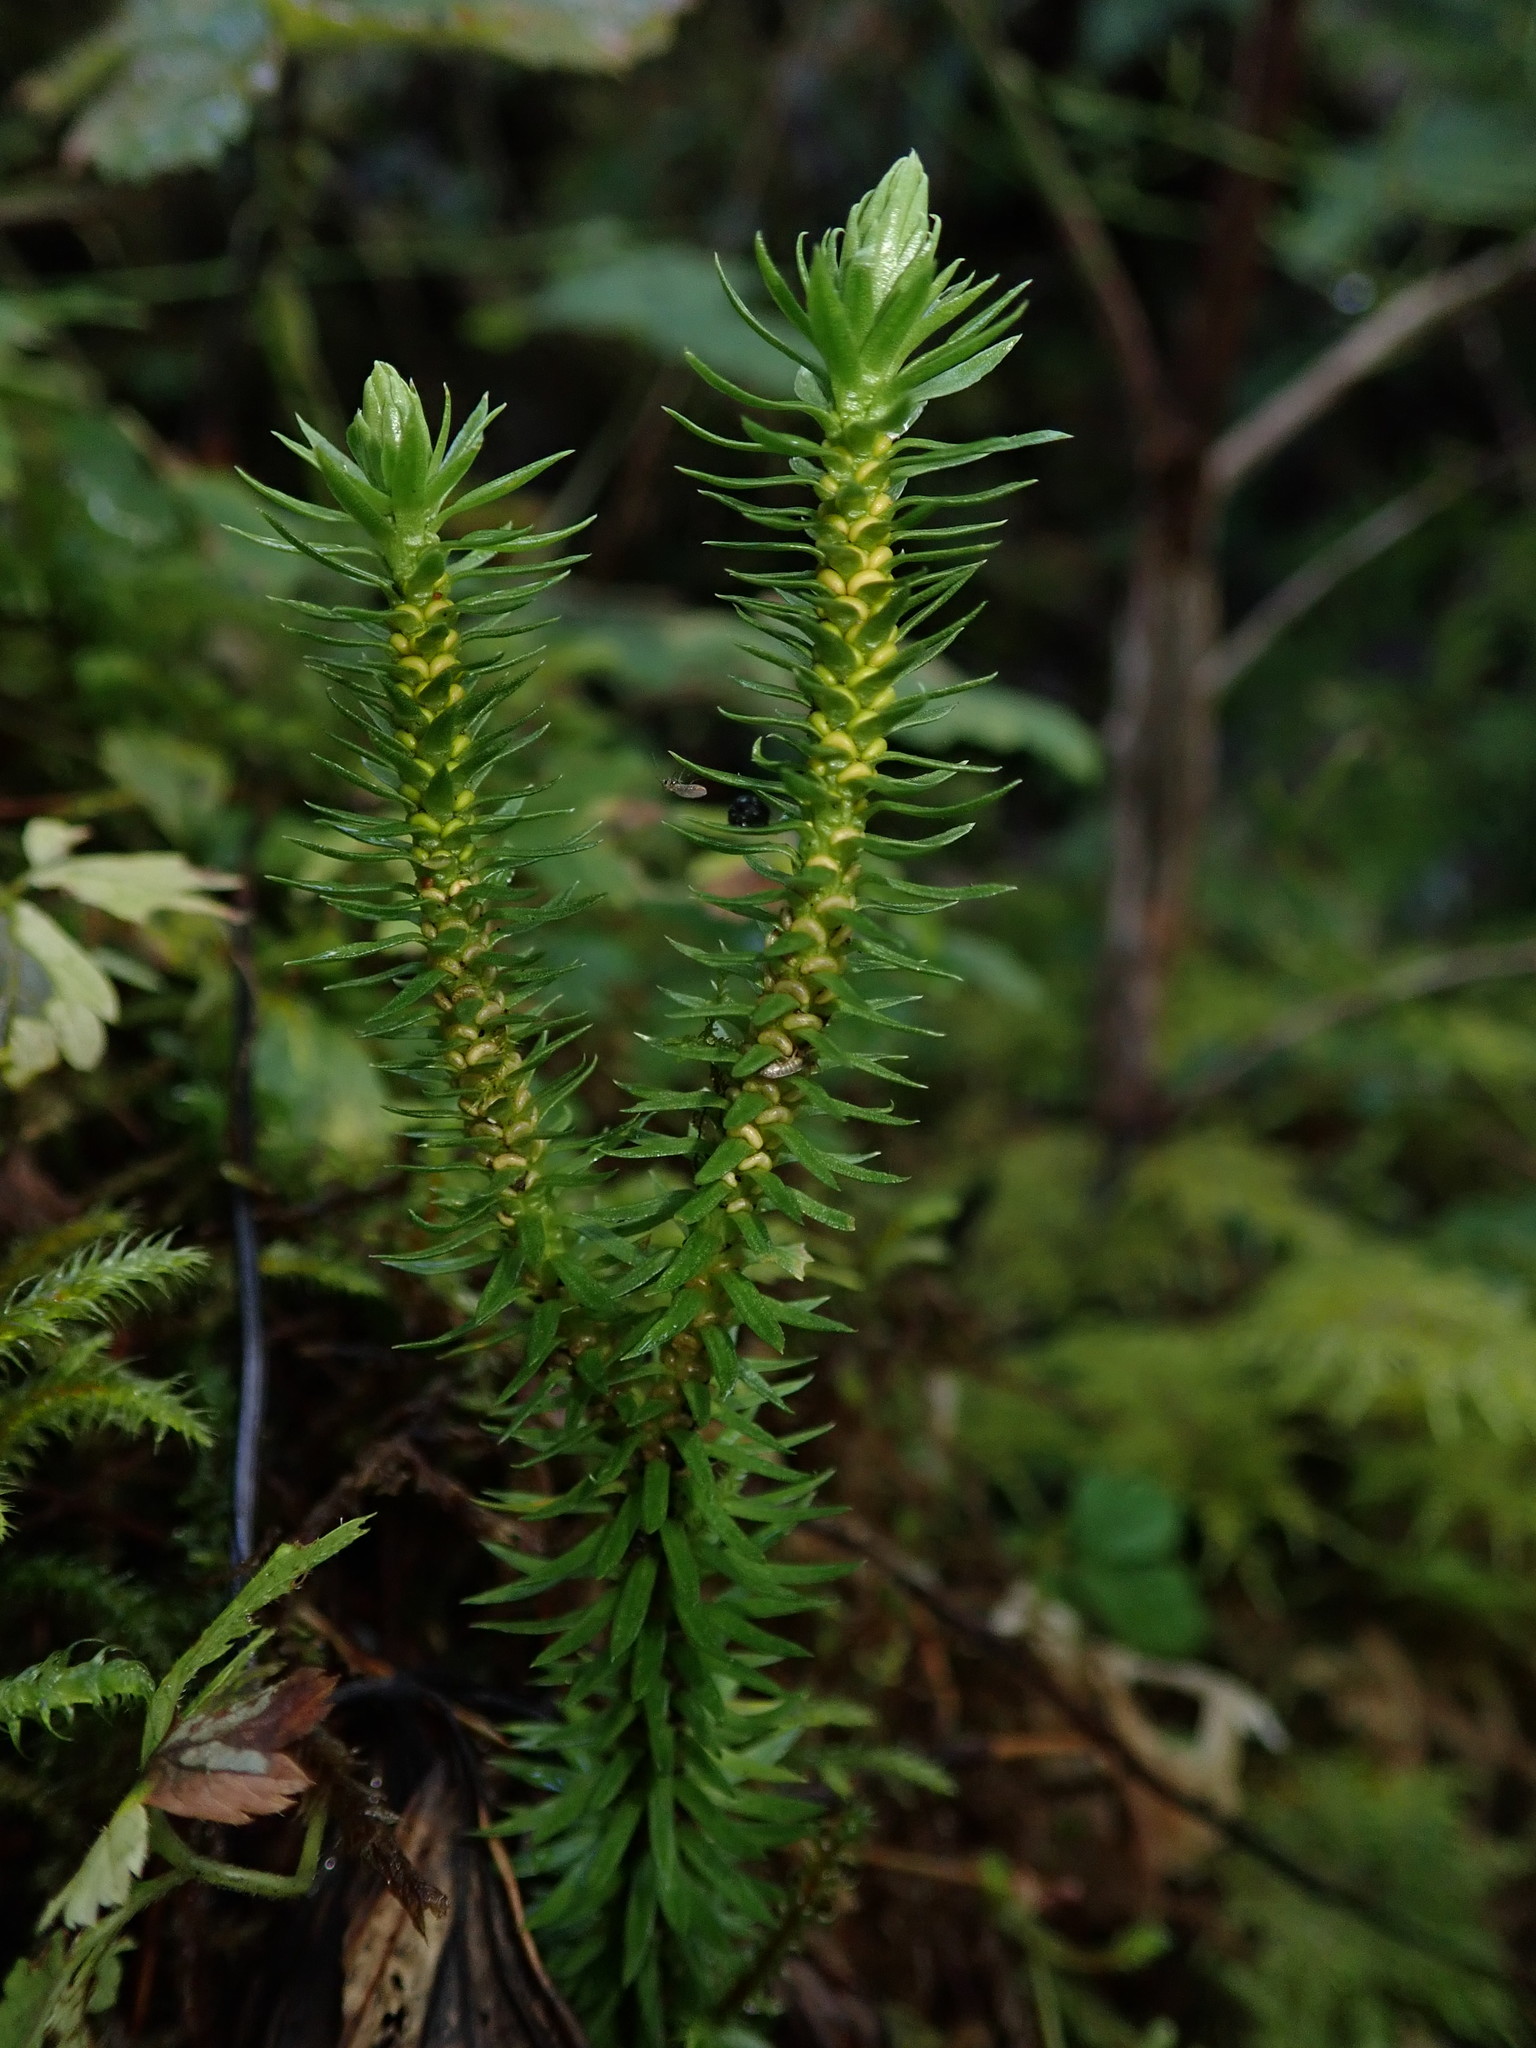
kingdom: Plantae
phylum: Tracheophyta
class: Lycopodiopsida
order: Lycopodiales
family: Lycopodiaceae
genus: Huperzia
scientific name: Huperzia miyoshiana
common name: Chinese clubmoss
